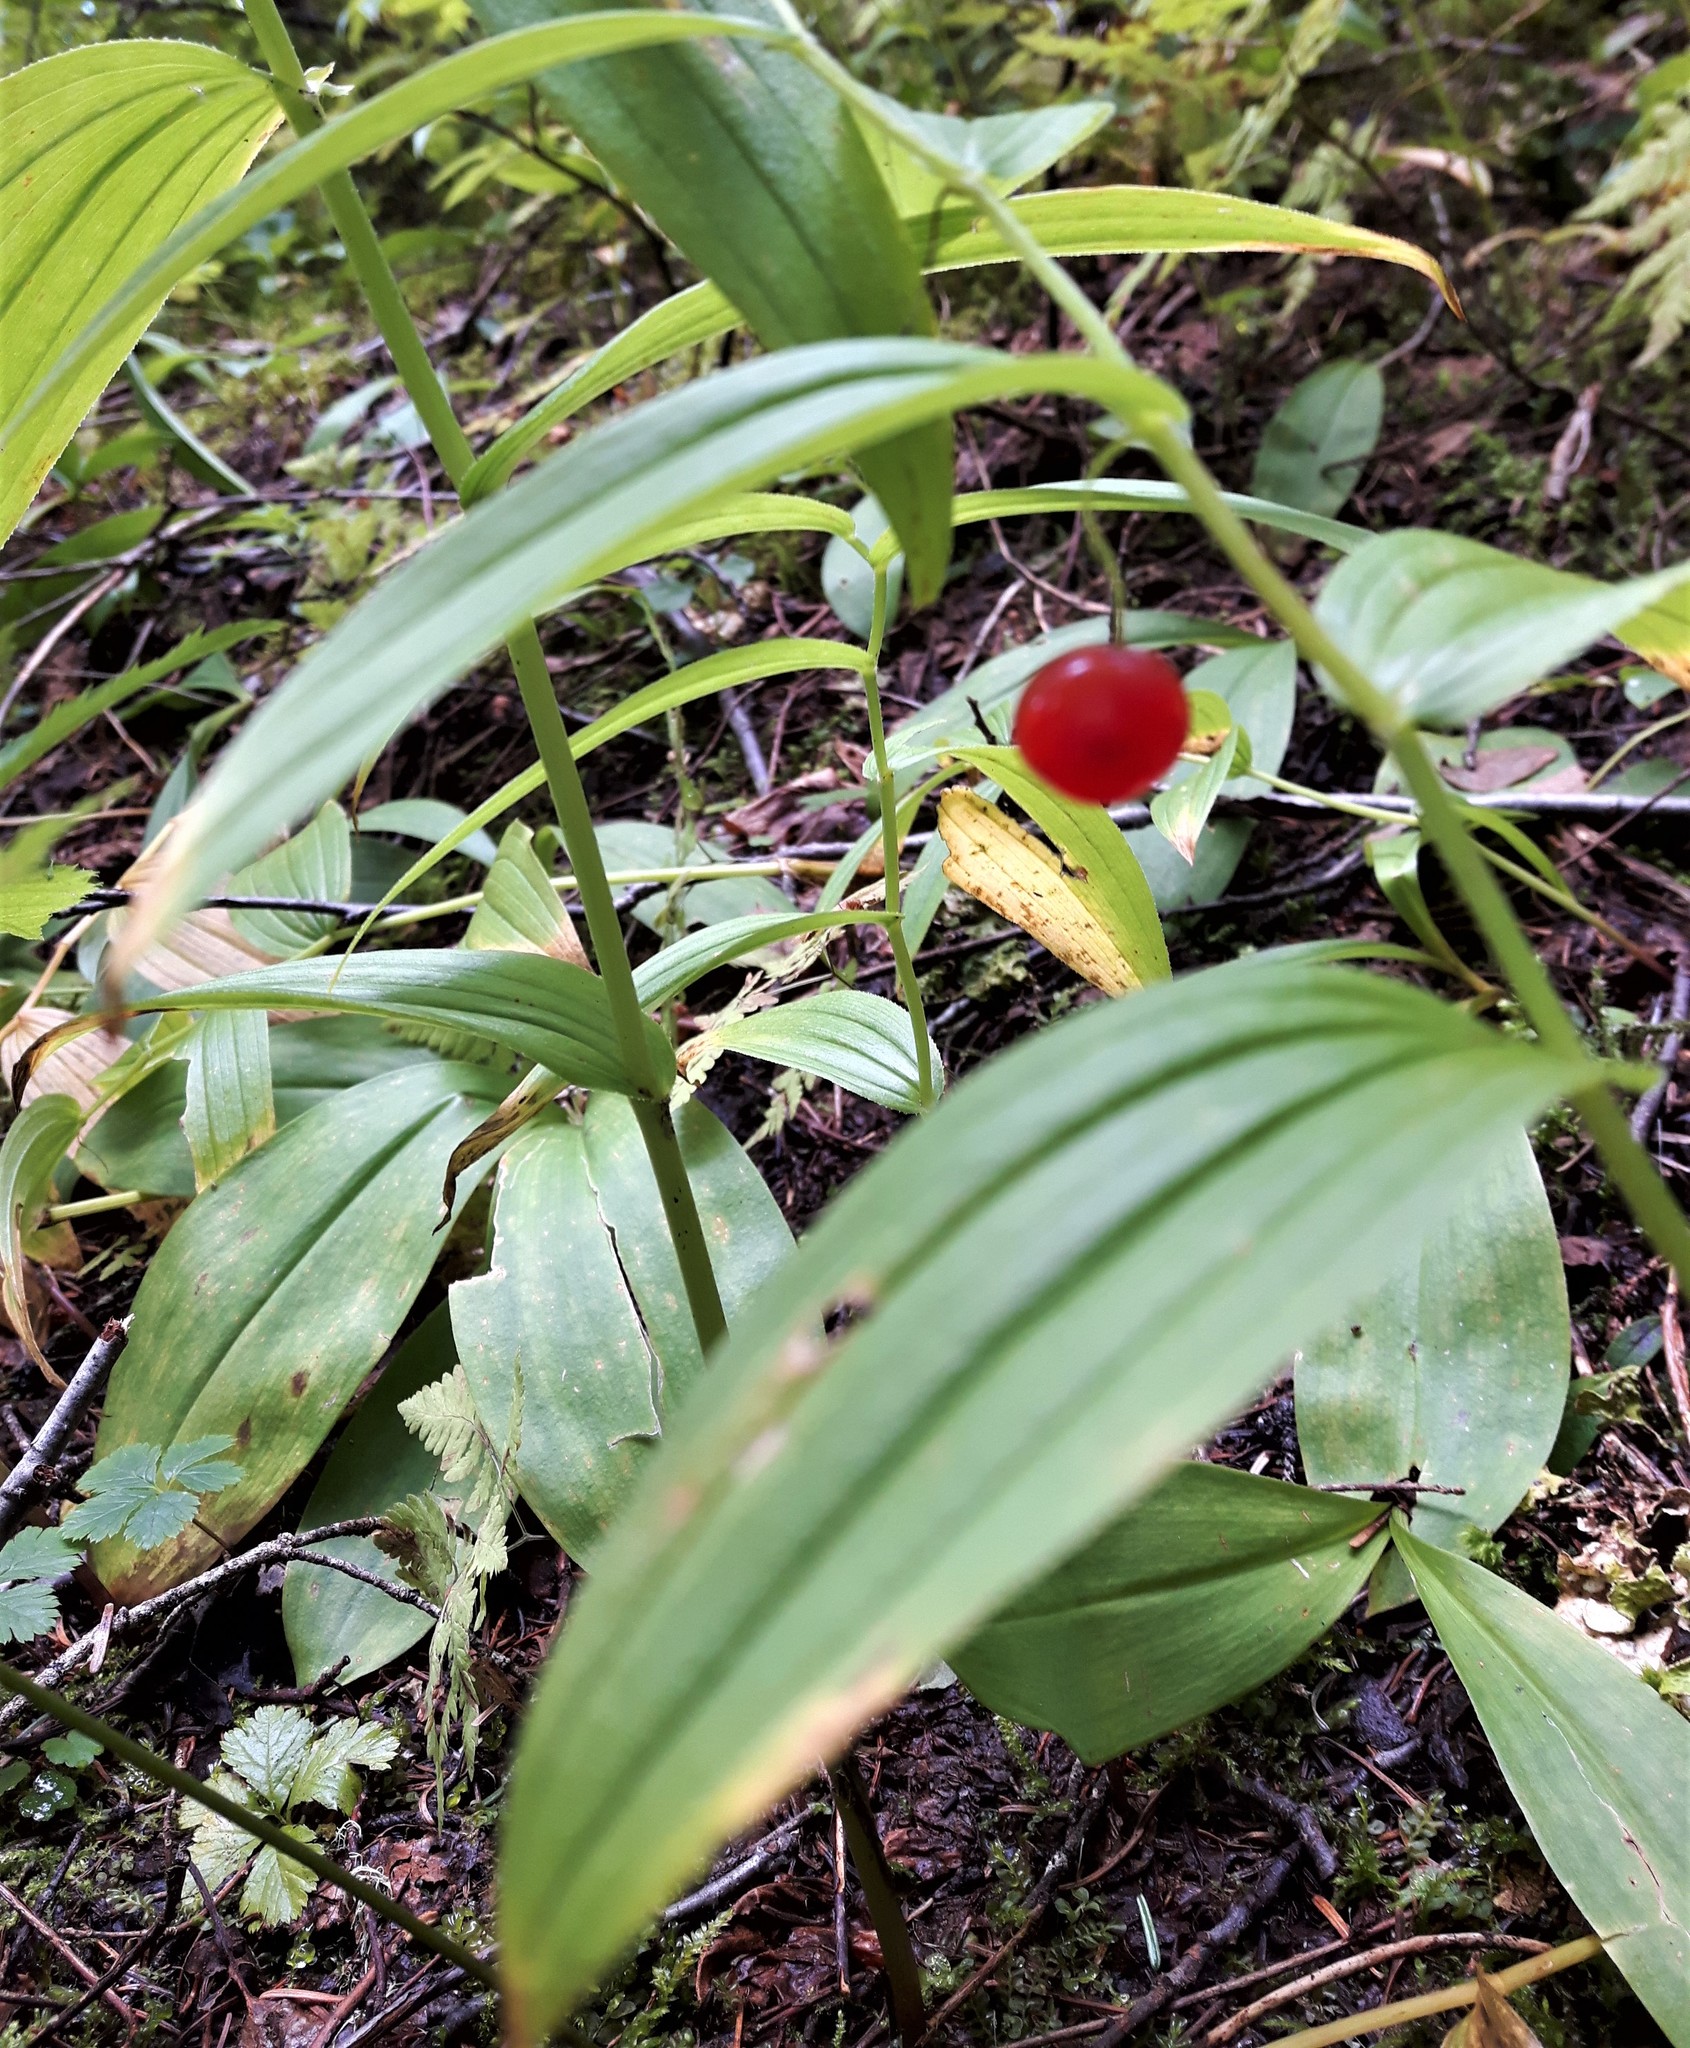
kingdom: Plantae
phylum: Tracheophyta
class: Liliopsida
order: Liliales
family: Liliaceae
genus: Streptopus
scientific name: Streptopus lanceolatus
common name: Rose mandarin
